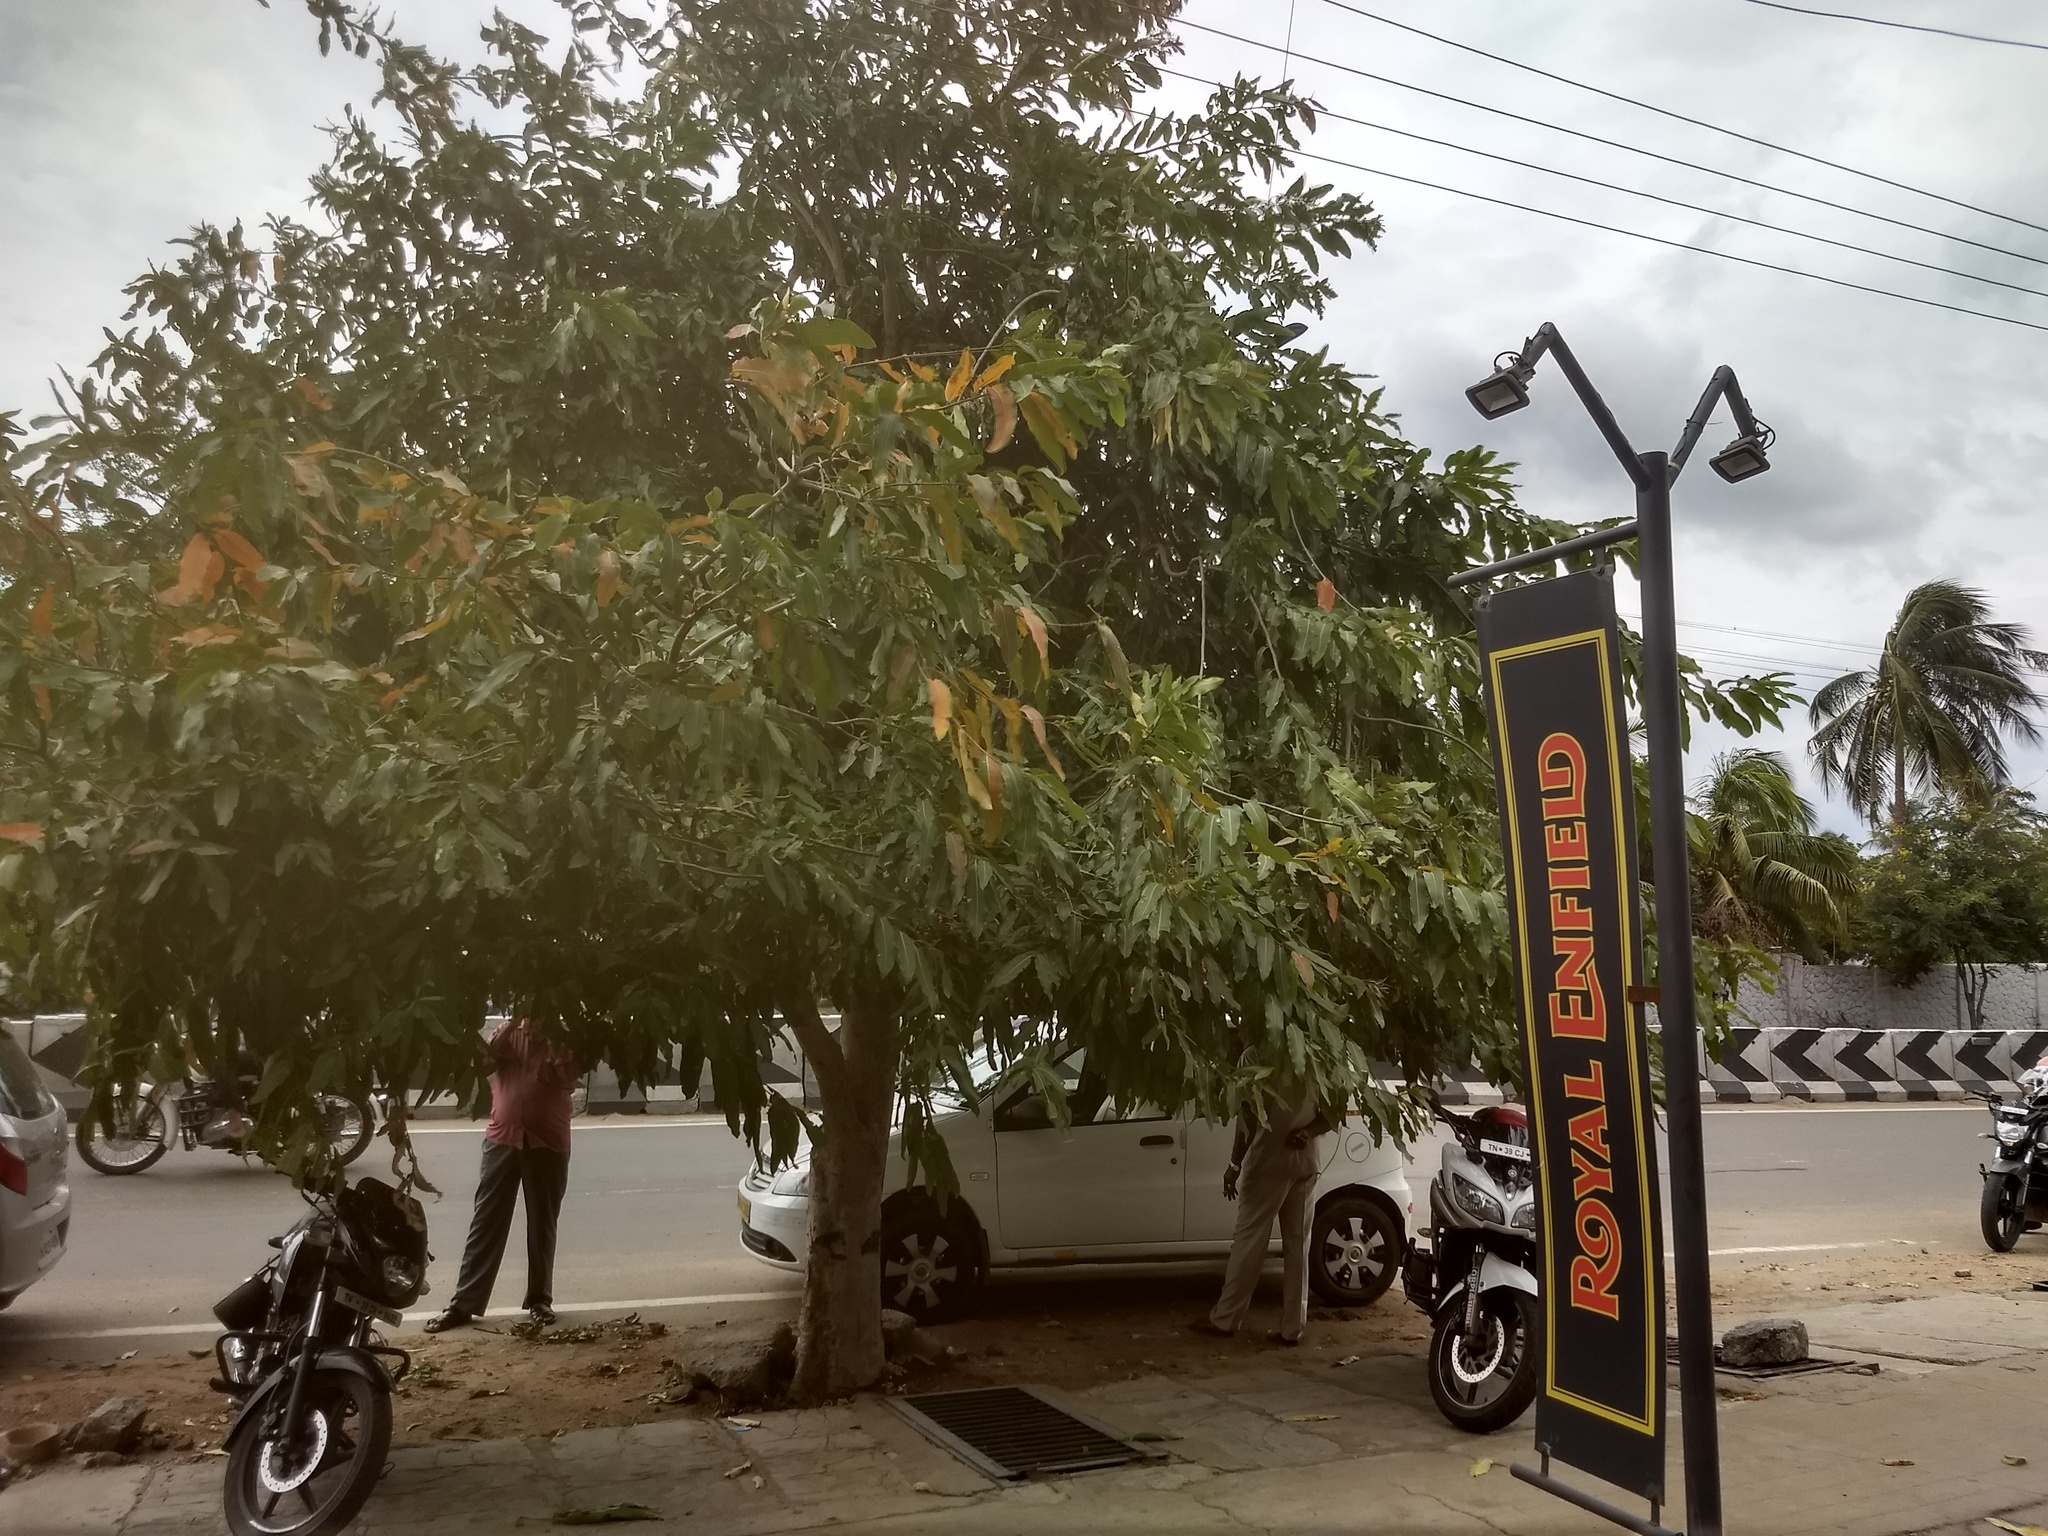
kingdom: Plantae
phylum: Tracheophyta
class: Magnoliopsida
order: Myrtales
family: Combretaceae
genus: Terminalia
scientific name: Terminalia arjuna
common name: Arjun
